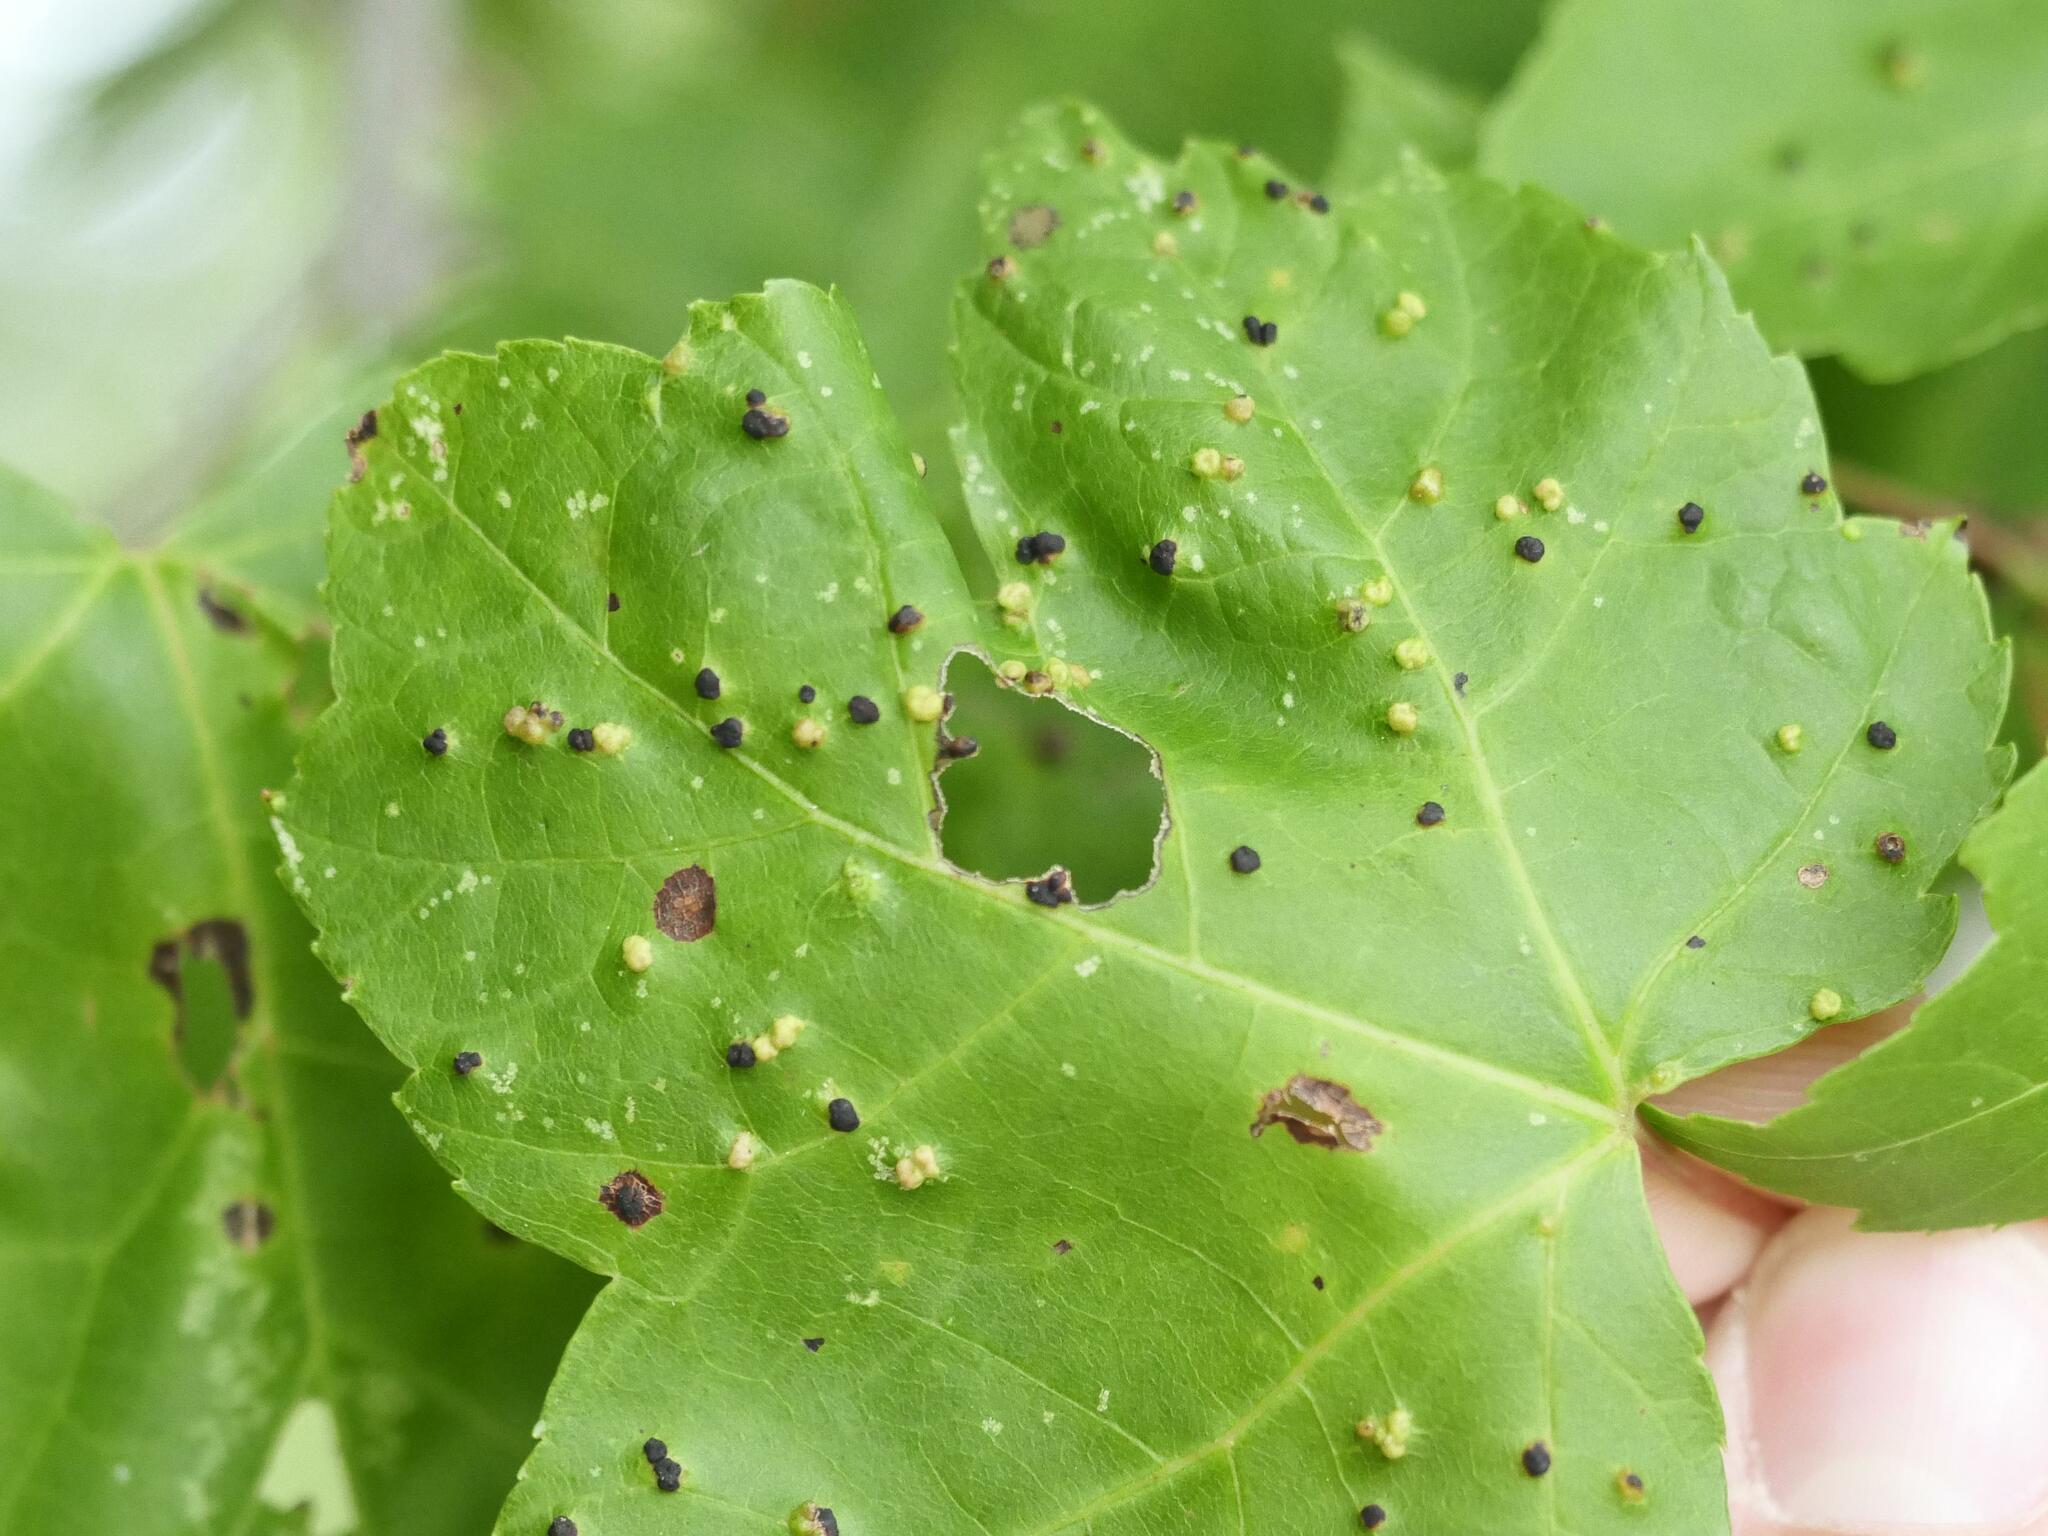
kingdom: Animalia
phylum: Arthropoda
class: Arachnida
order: Trombidiformes
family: Eriophyidae
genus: Vasates
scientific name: Vasates quadripedes
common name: Maple bladder gall mite
